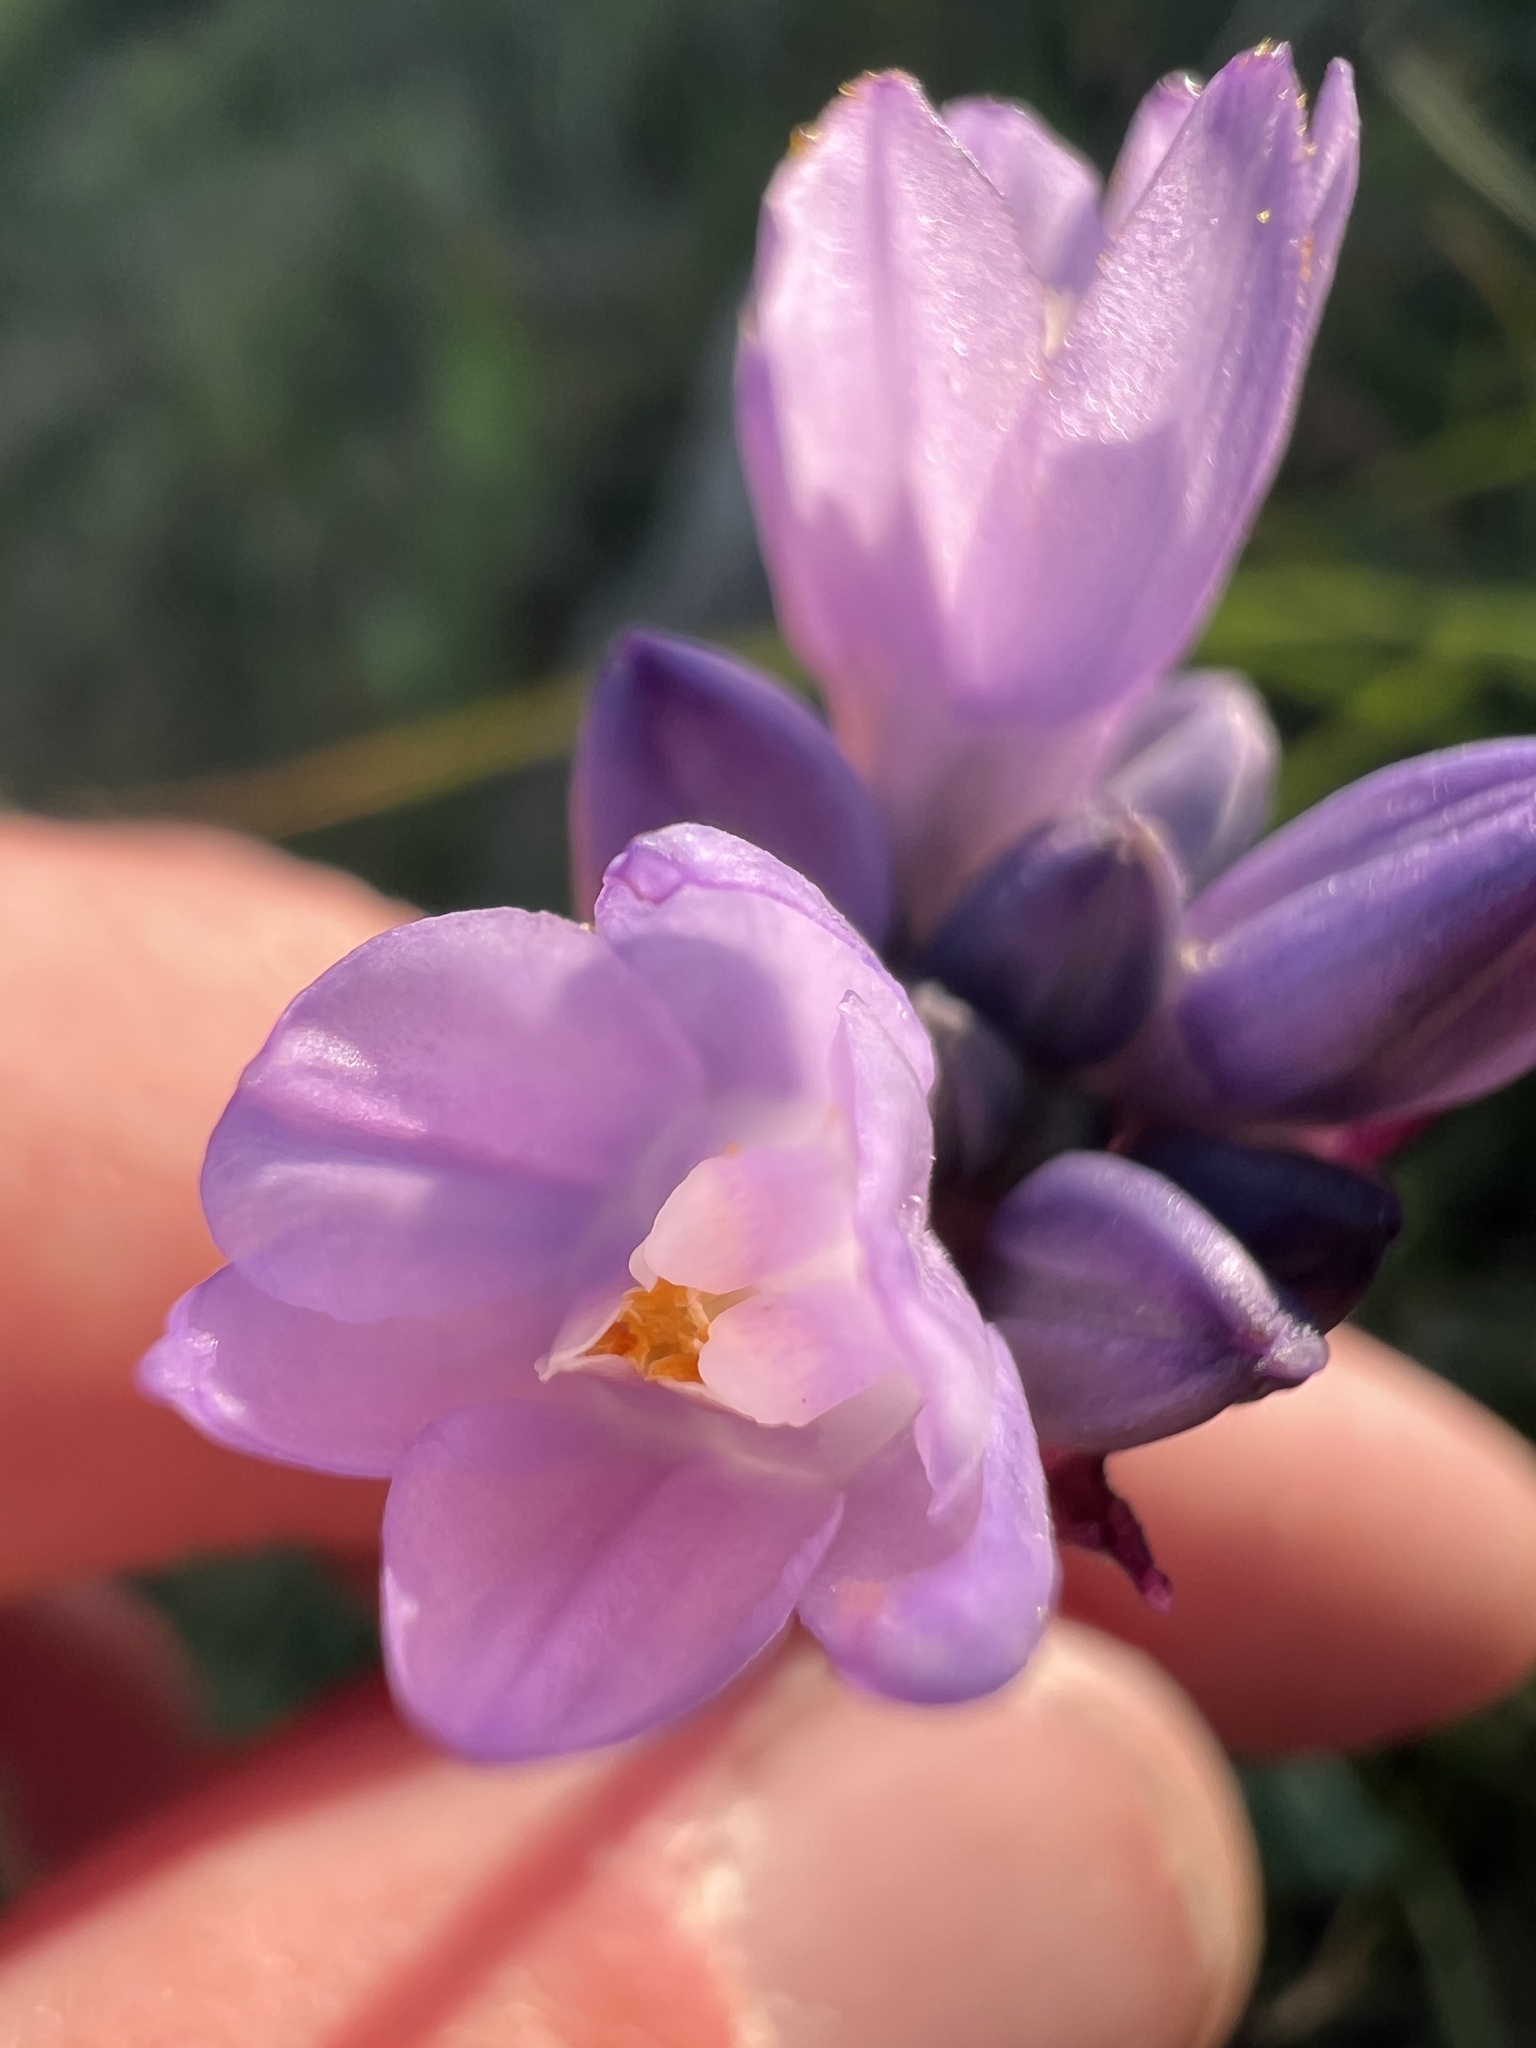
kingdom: Plantae
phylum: Tracheophyta
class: Liliopsida
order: Asparagales
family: Asparagaceae
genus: Dipterostemon
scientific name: Dipterostemon capitatus
